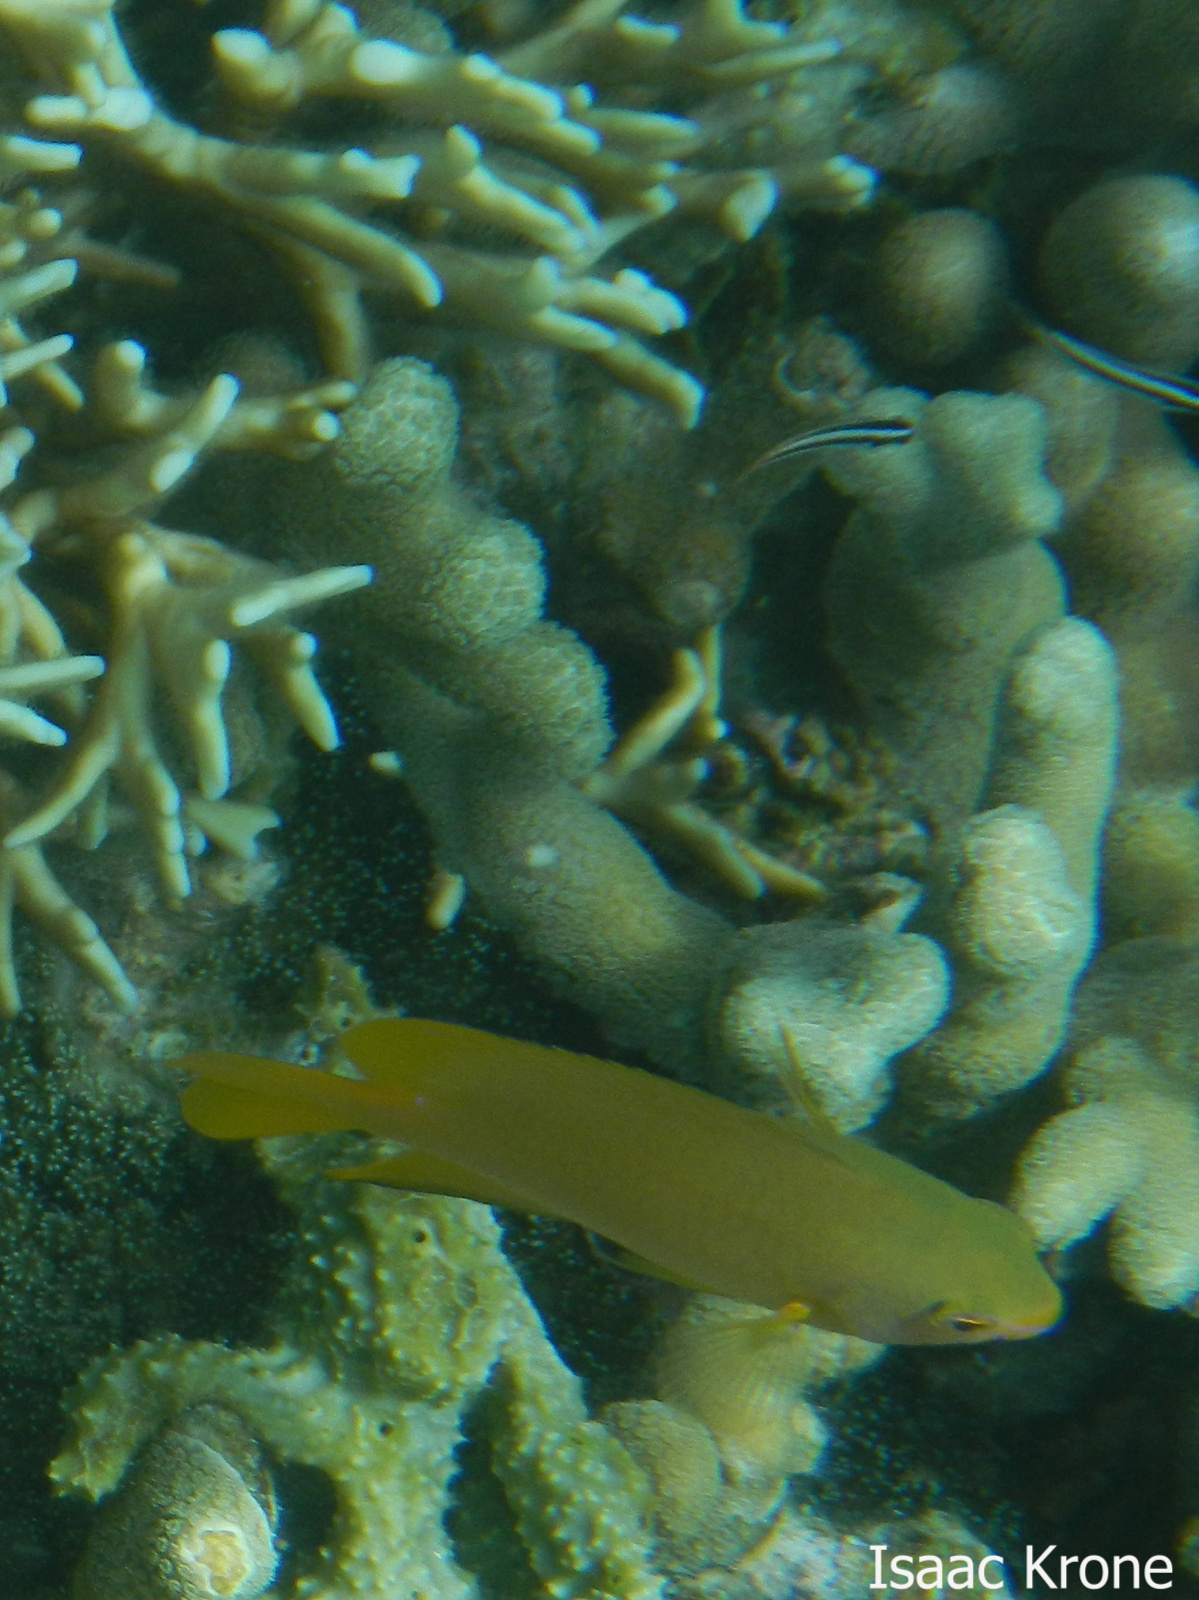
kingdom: Animalia
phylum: Chordata
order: Perciformes
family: Pomacentridae
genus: Pomacentrus
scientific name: Pomacentrus moluccensis
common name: Lemon damsel
